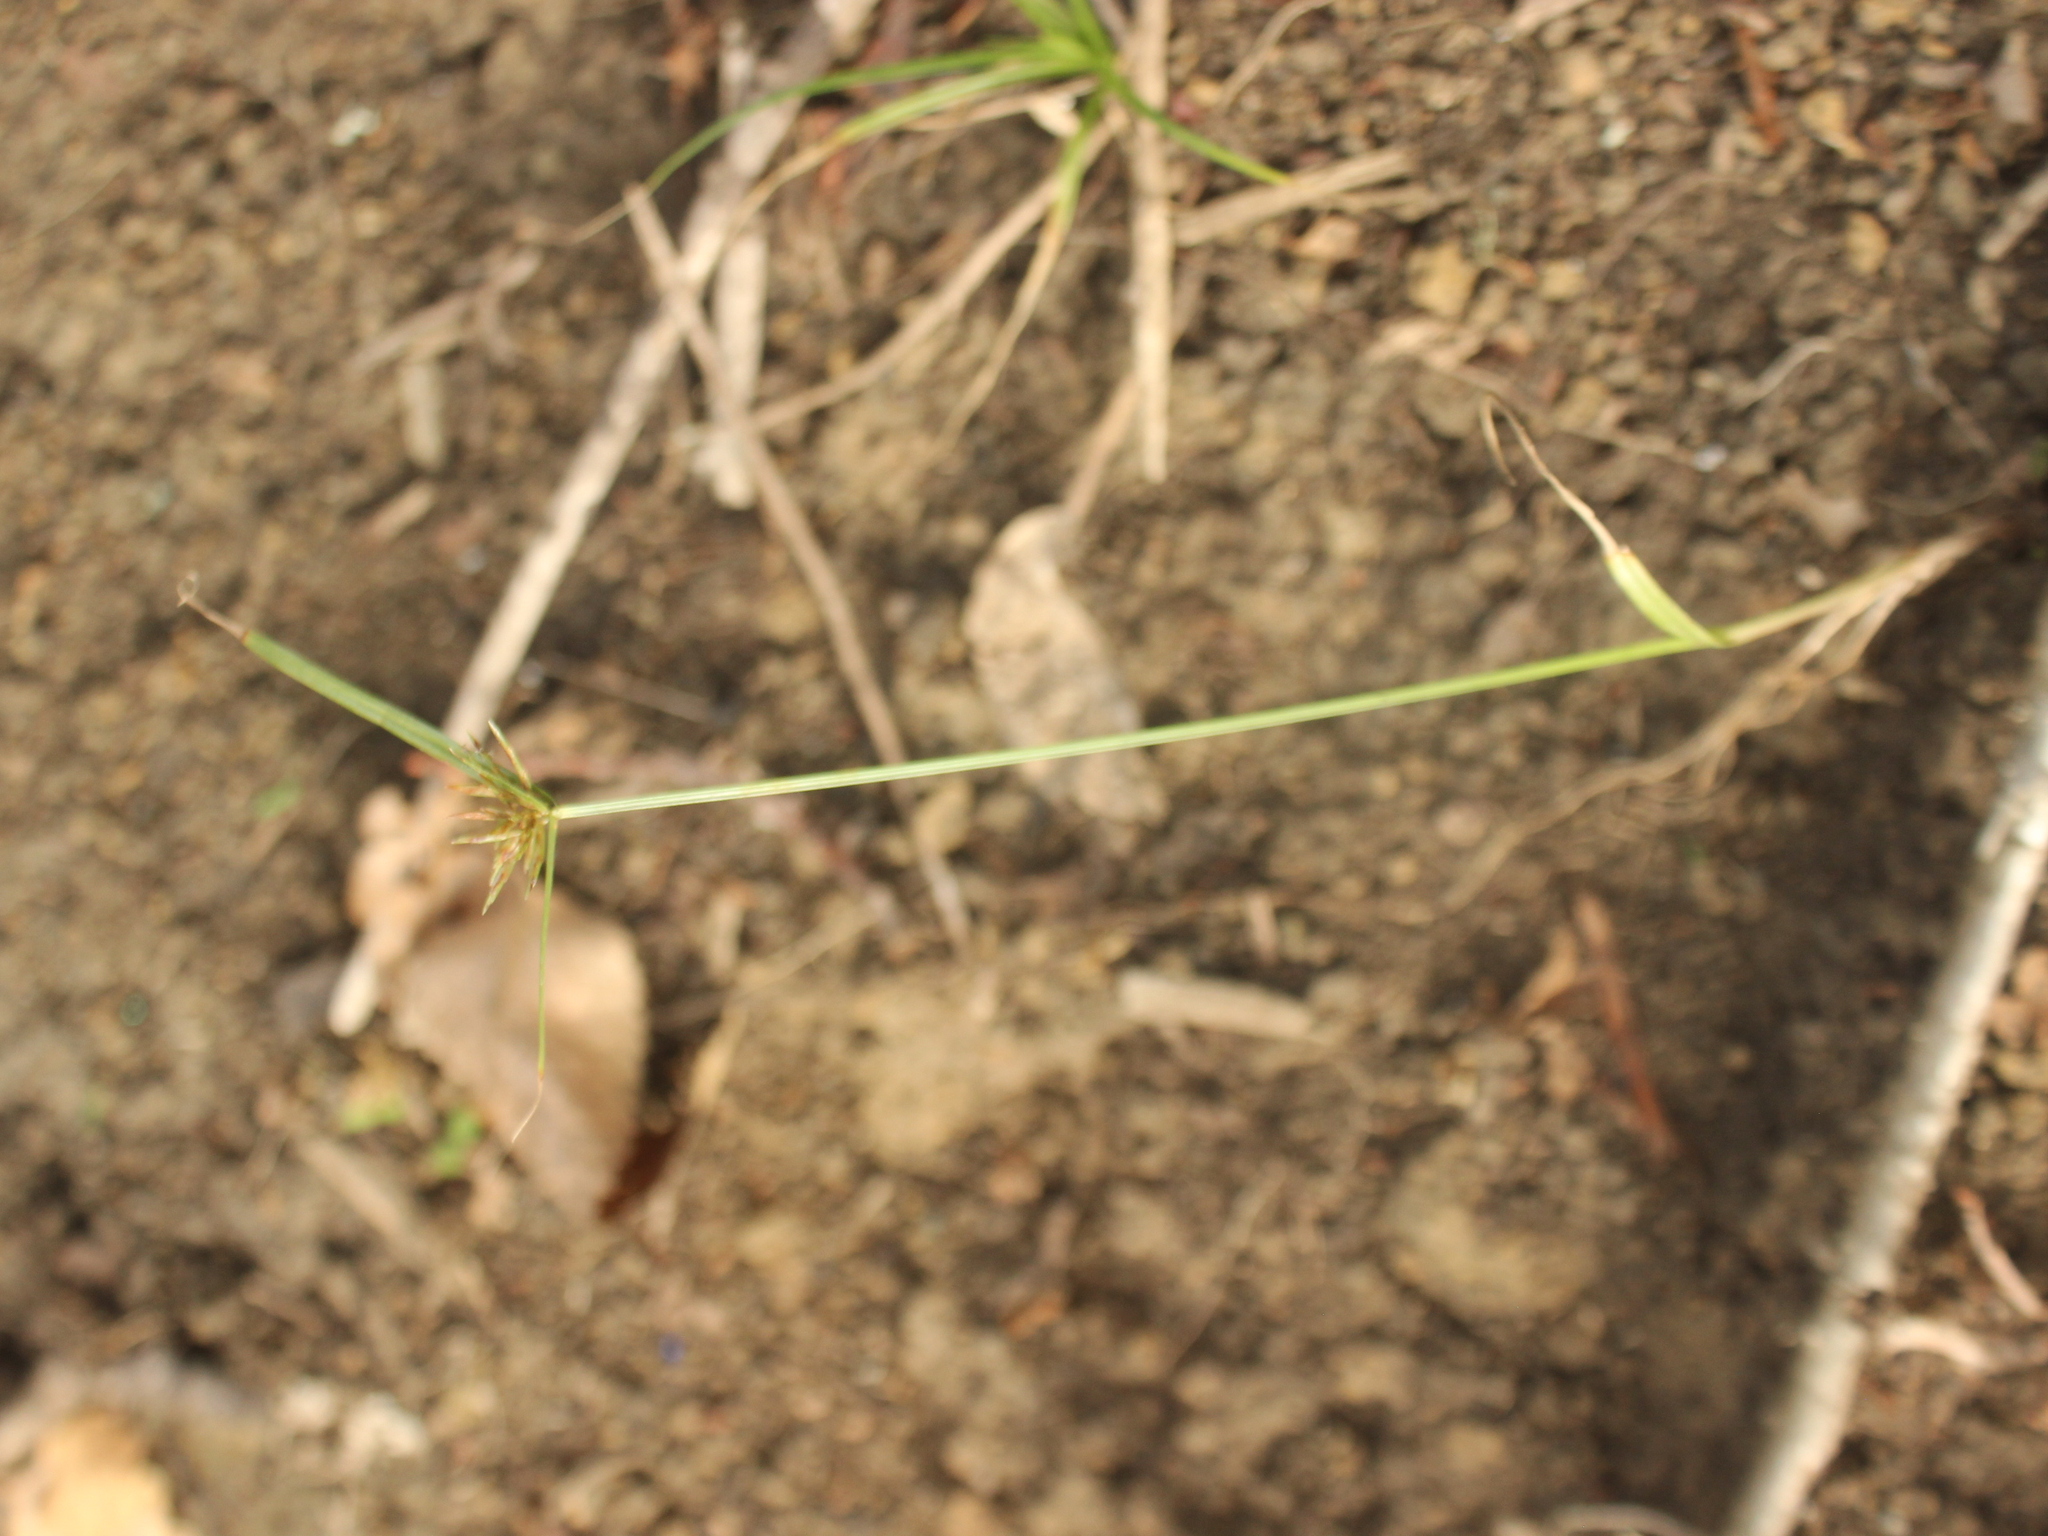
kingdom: Plantae
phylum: Tracheophyta
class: Liliopsida
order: Poales
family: Cyperaceae
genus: Cyperus
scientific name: Cyperus congestus
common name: Dense flat sedge
